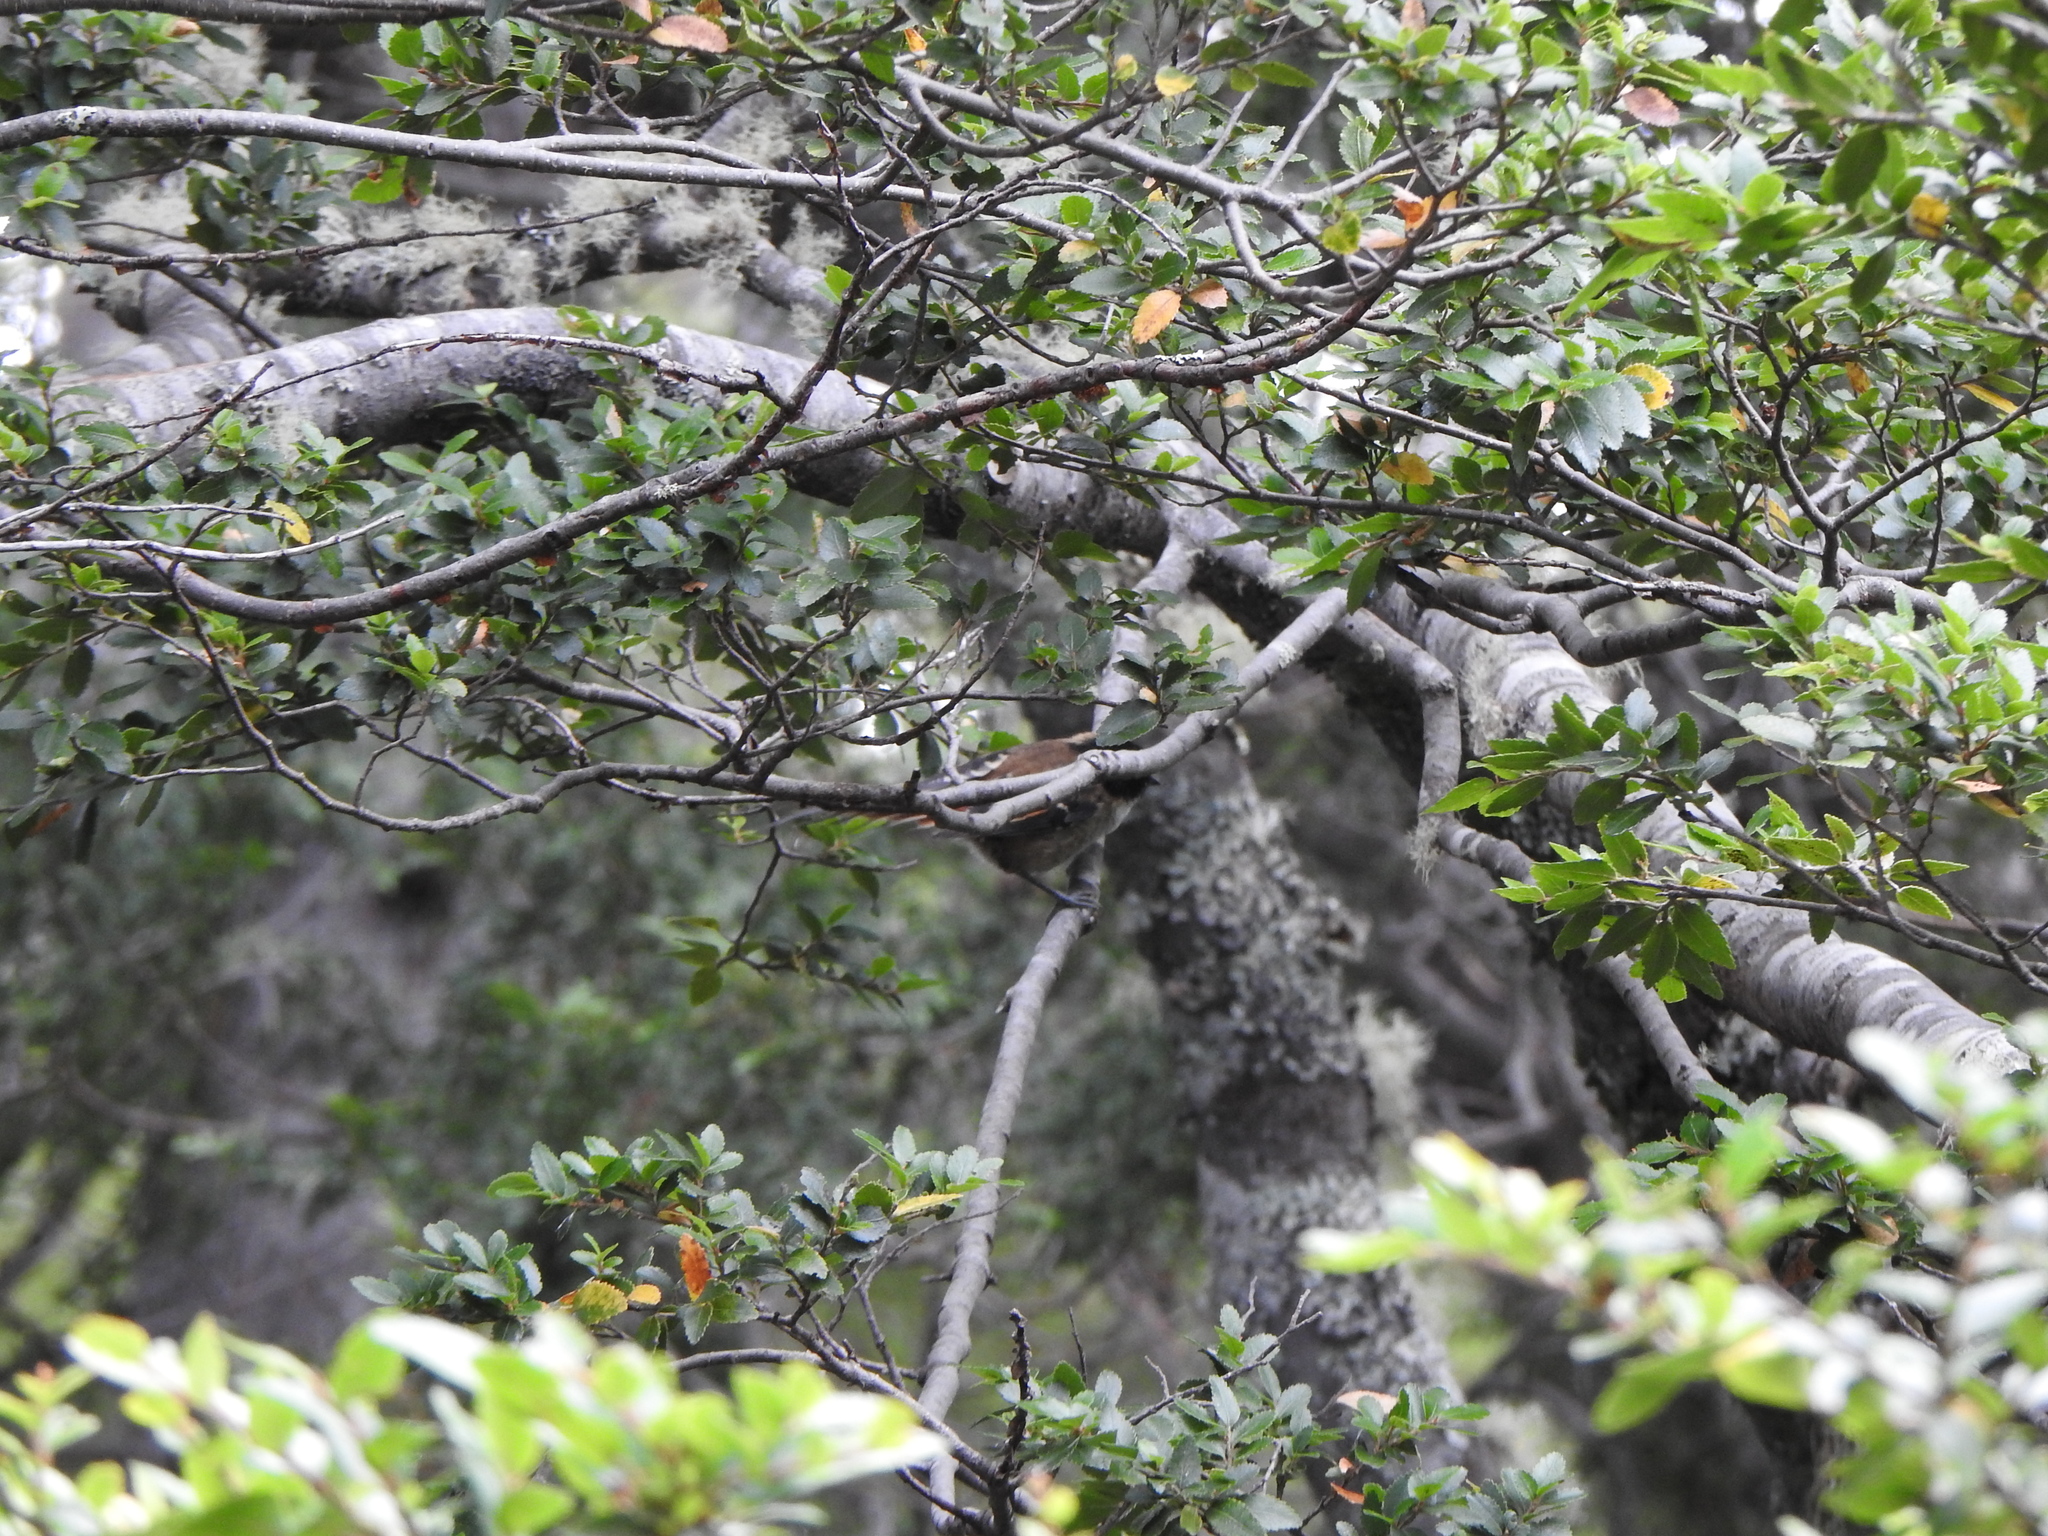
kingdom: Animalia
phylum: Chordata
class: Aves
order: Passeriformes
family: Furnariidae
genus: Aphrastura
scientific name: Aphrastura spinicauda
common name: Thorn-tailed rayadito
